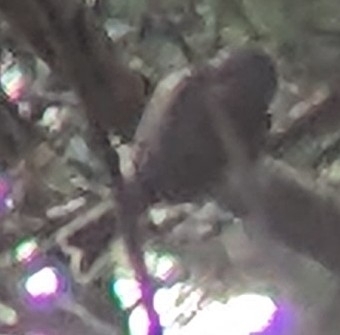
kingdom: Animalia
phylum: Chordata
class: Aves
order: Passeriformes
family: Acanthizidae
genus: Finschia
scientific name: Finschia novaeseelandiae
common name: Pipipi
